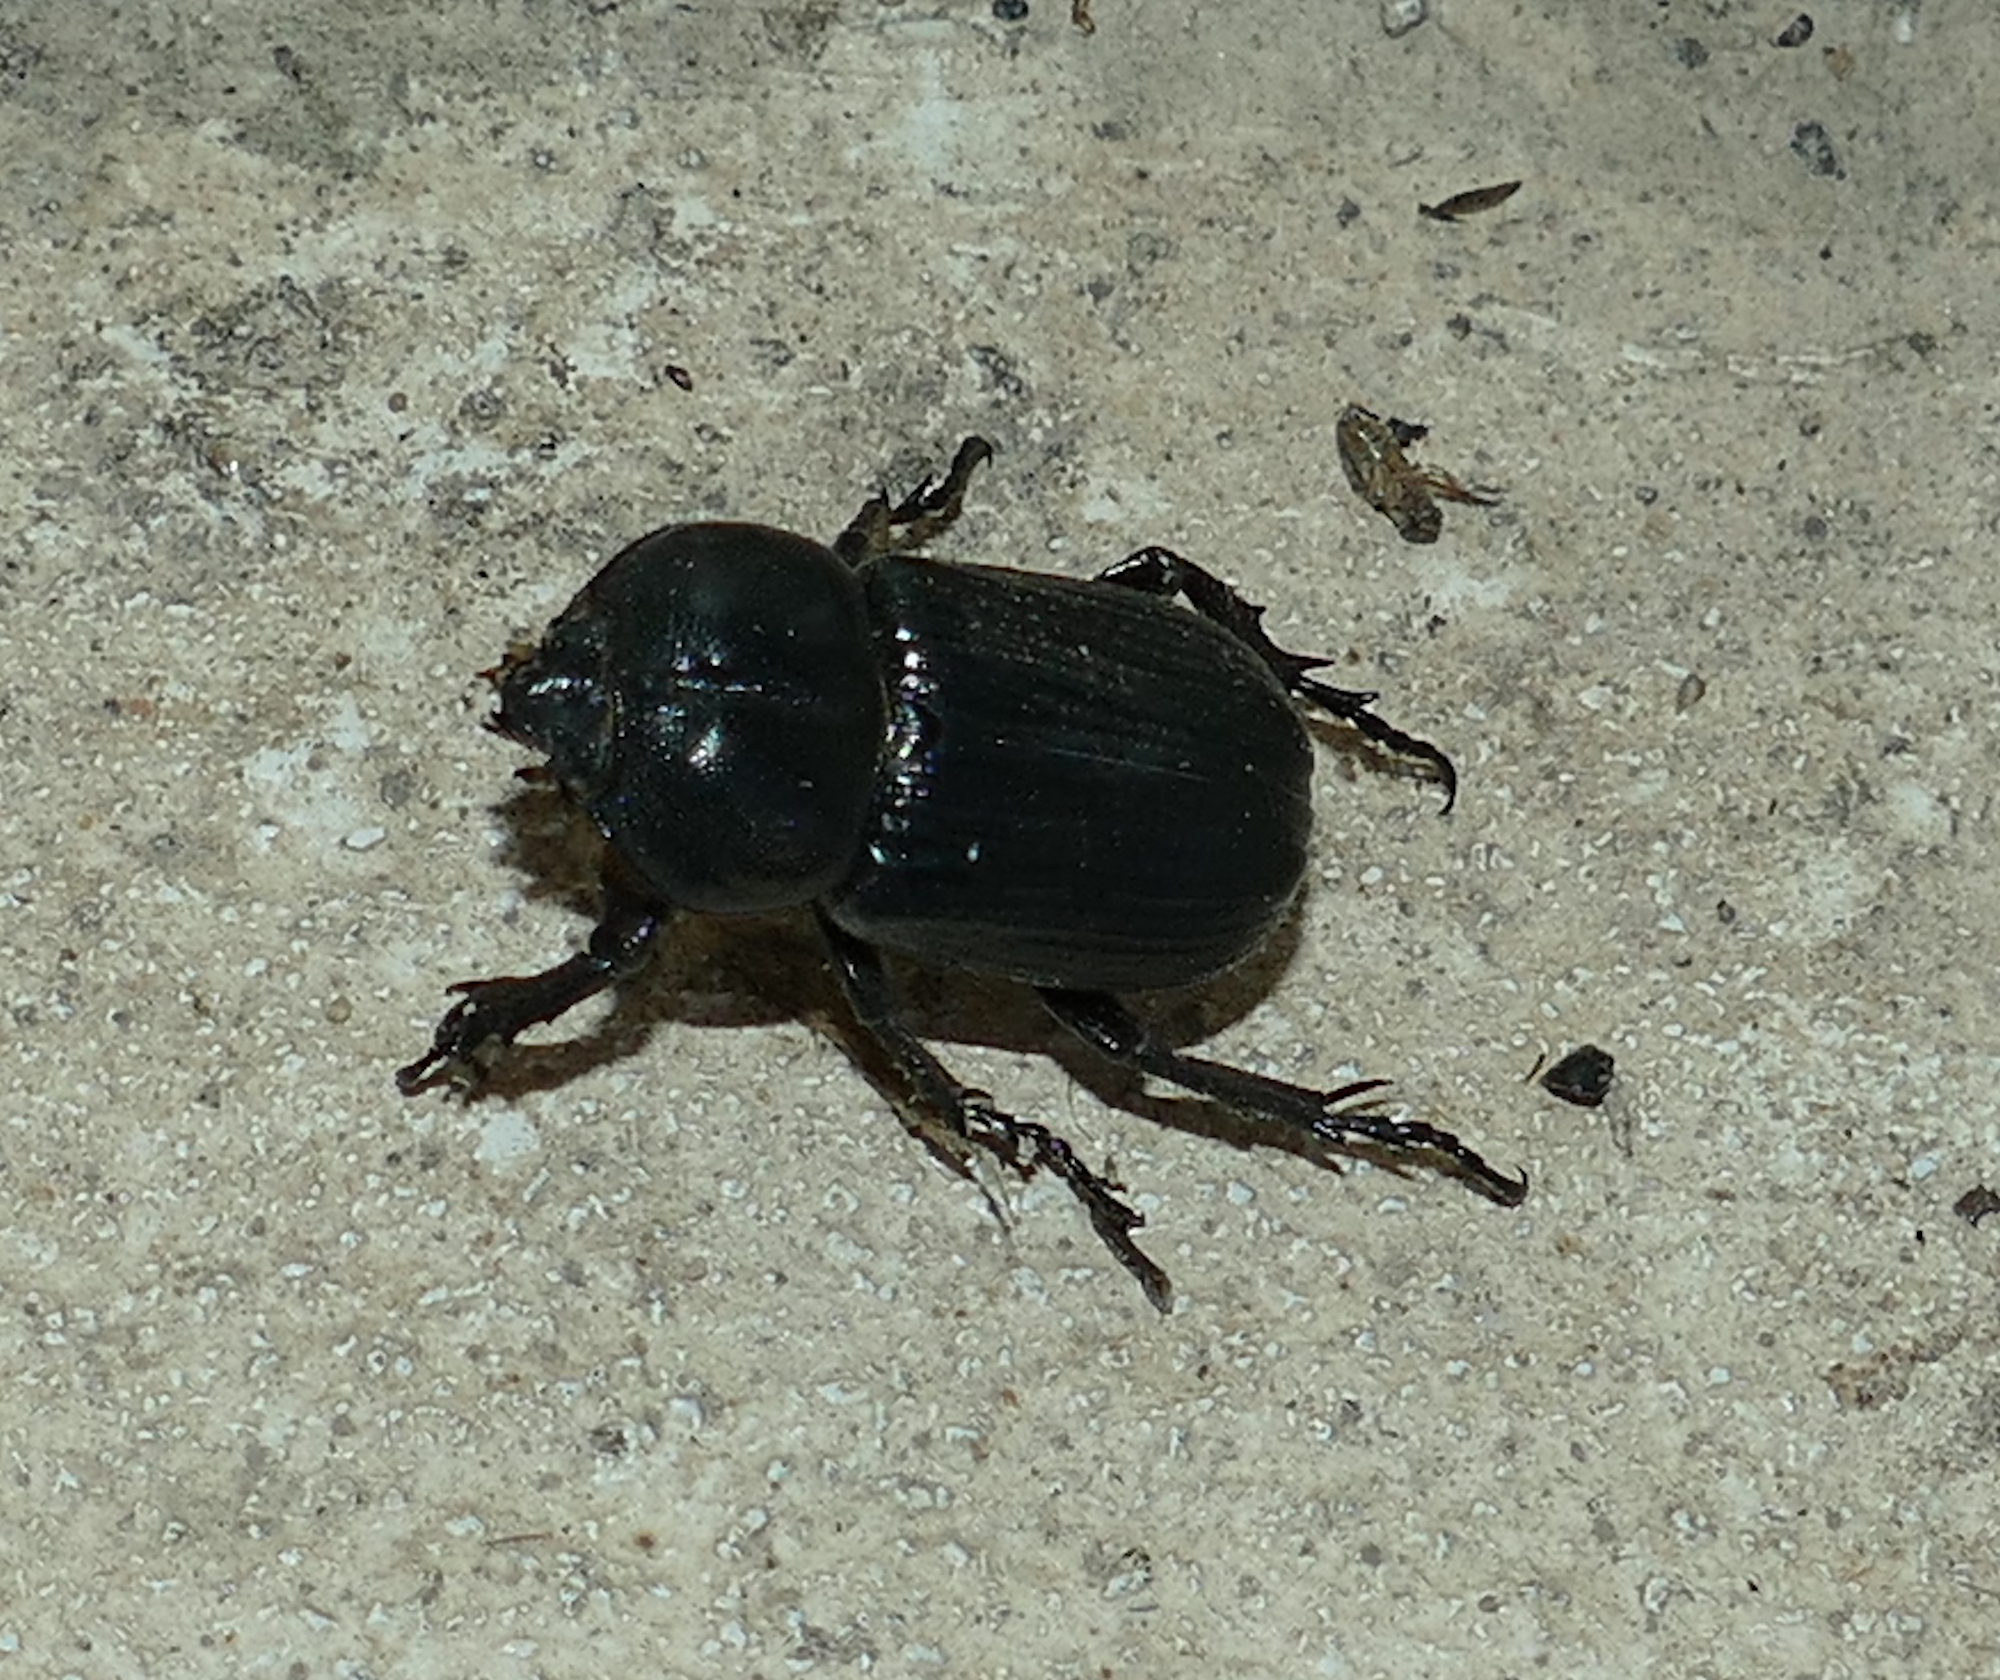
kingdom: Animalia
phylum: Arthropoda
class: Insecta
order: Coleoptera
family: Scarabaeidae
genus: Phileurus
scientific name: Phileurus valgus
